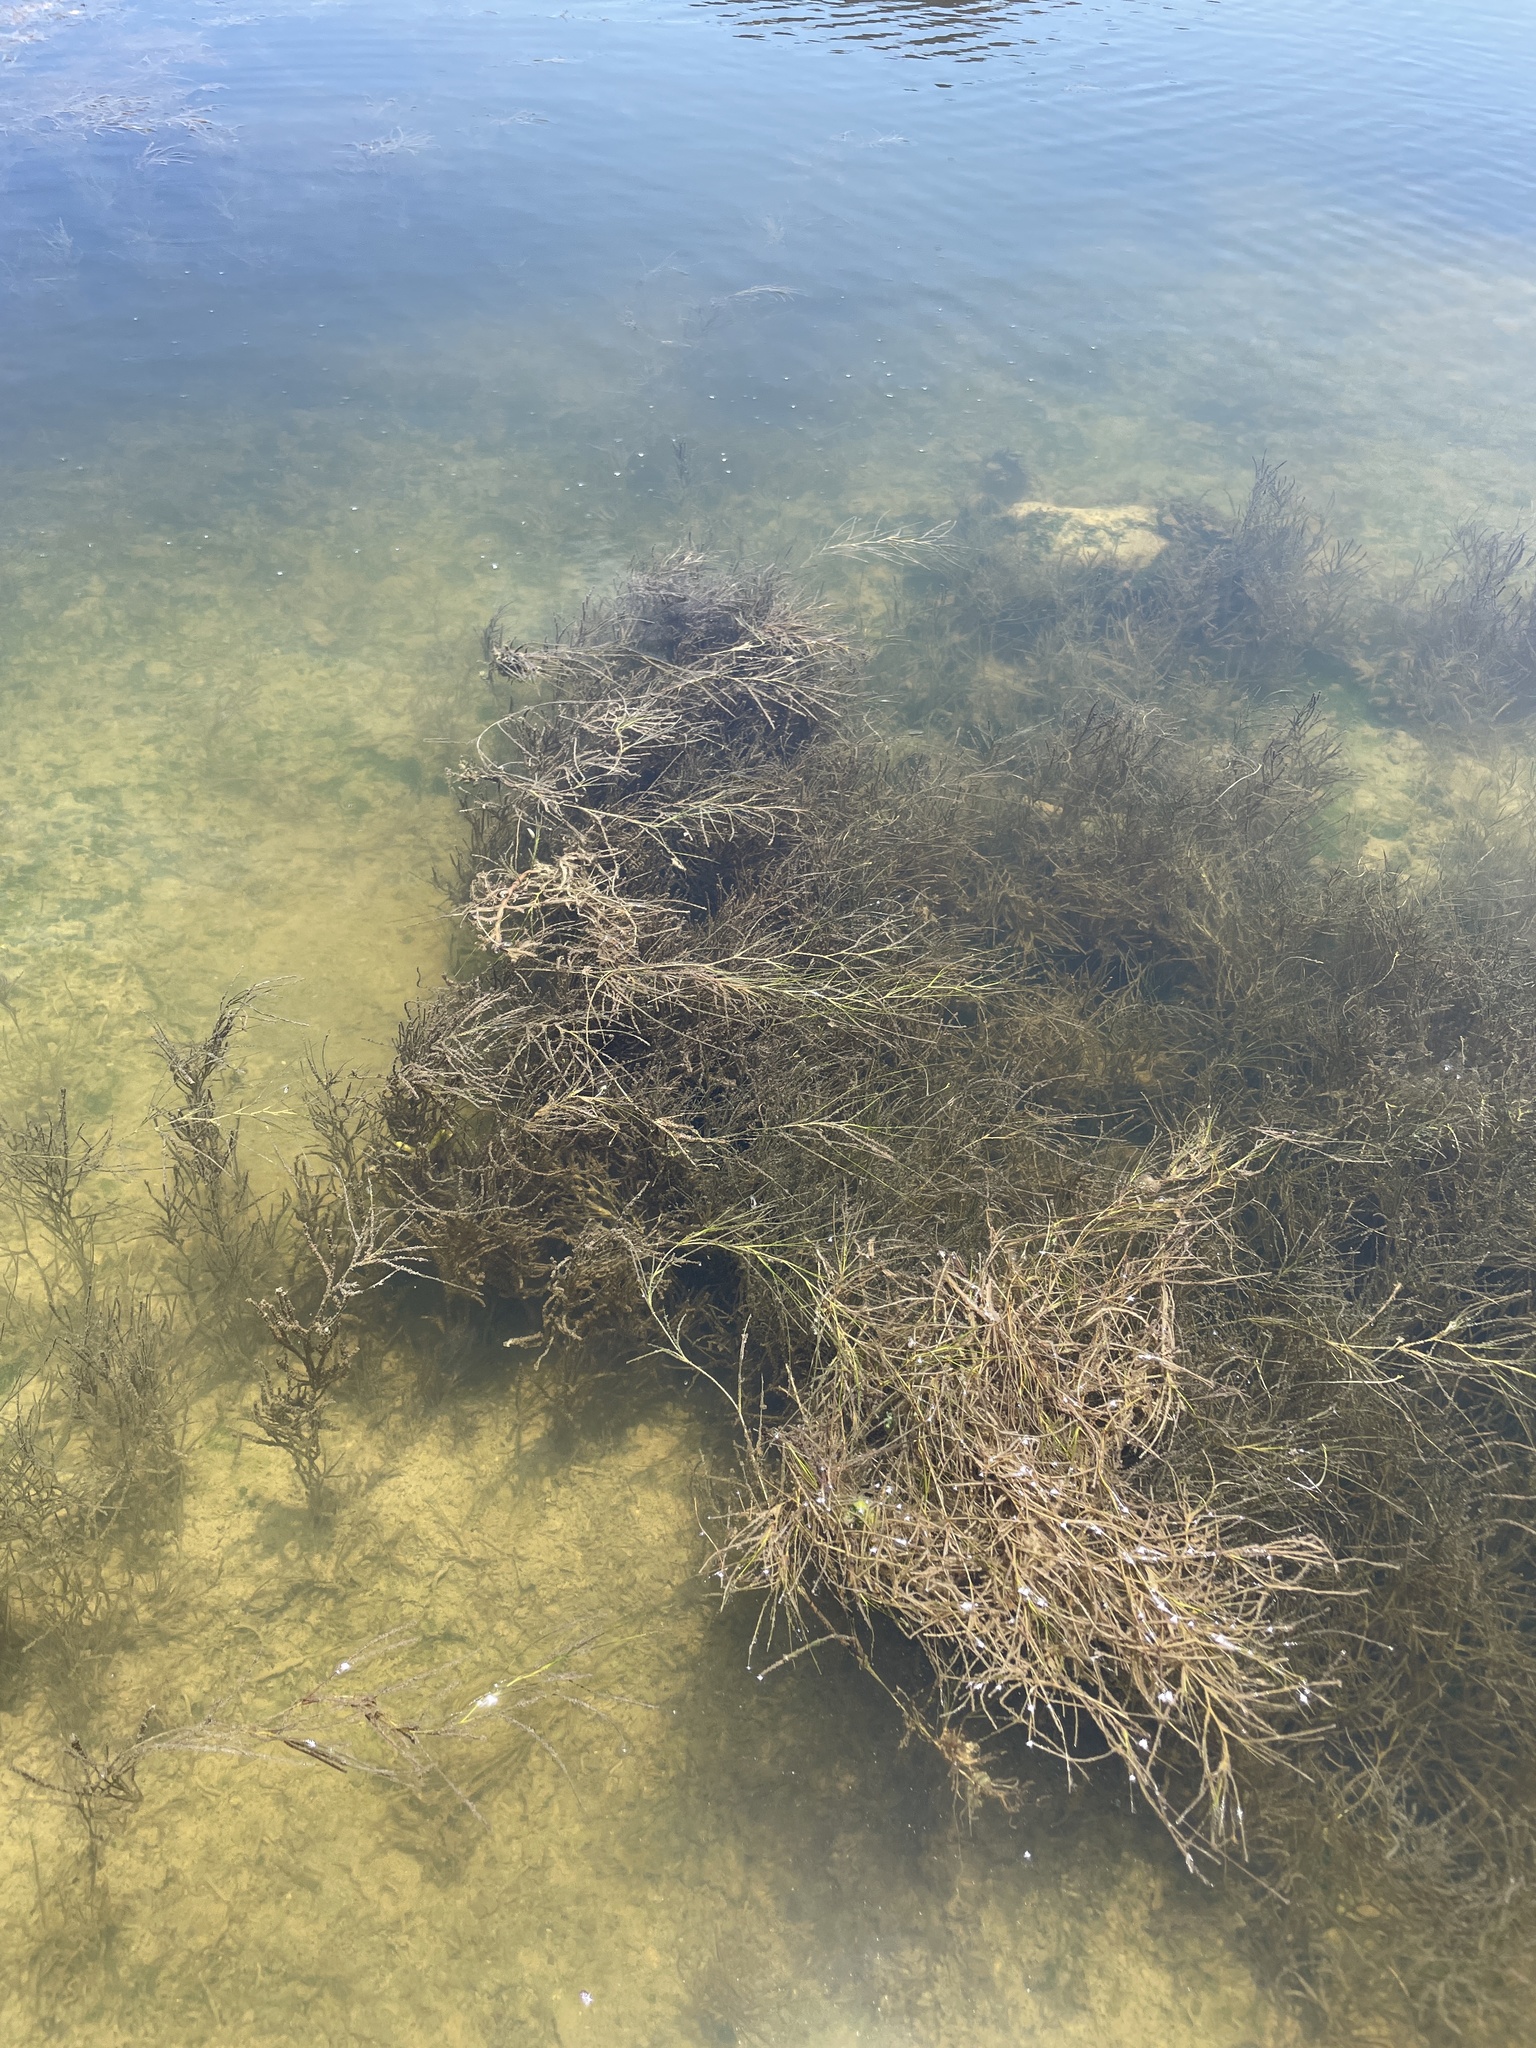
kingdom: Plantae
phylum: Tracheophyta
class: Liliopsida
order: Alismatales
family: Ruppiaceae
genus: Ruppia
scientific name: Ruppia maritima
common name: Beaked tasselweed
